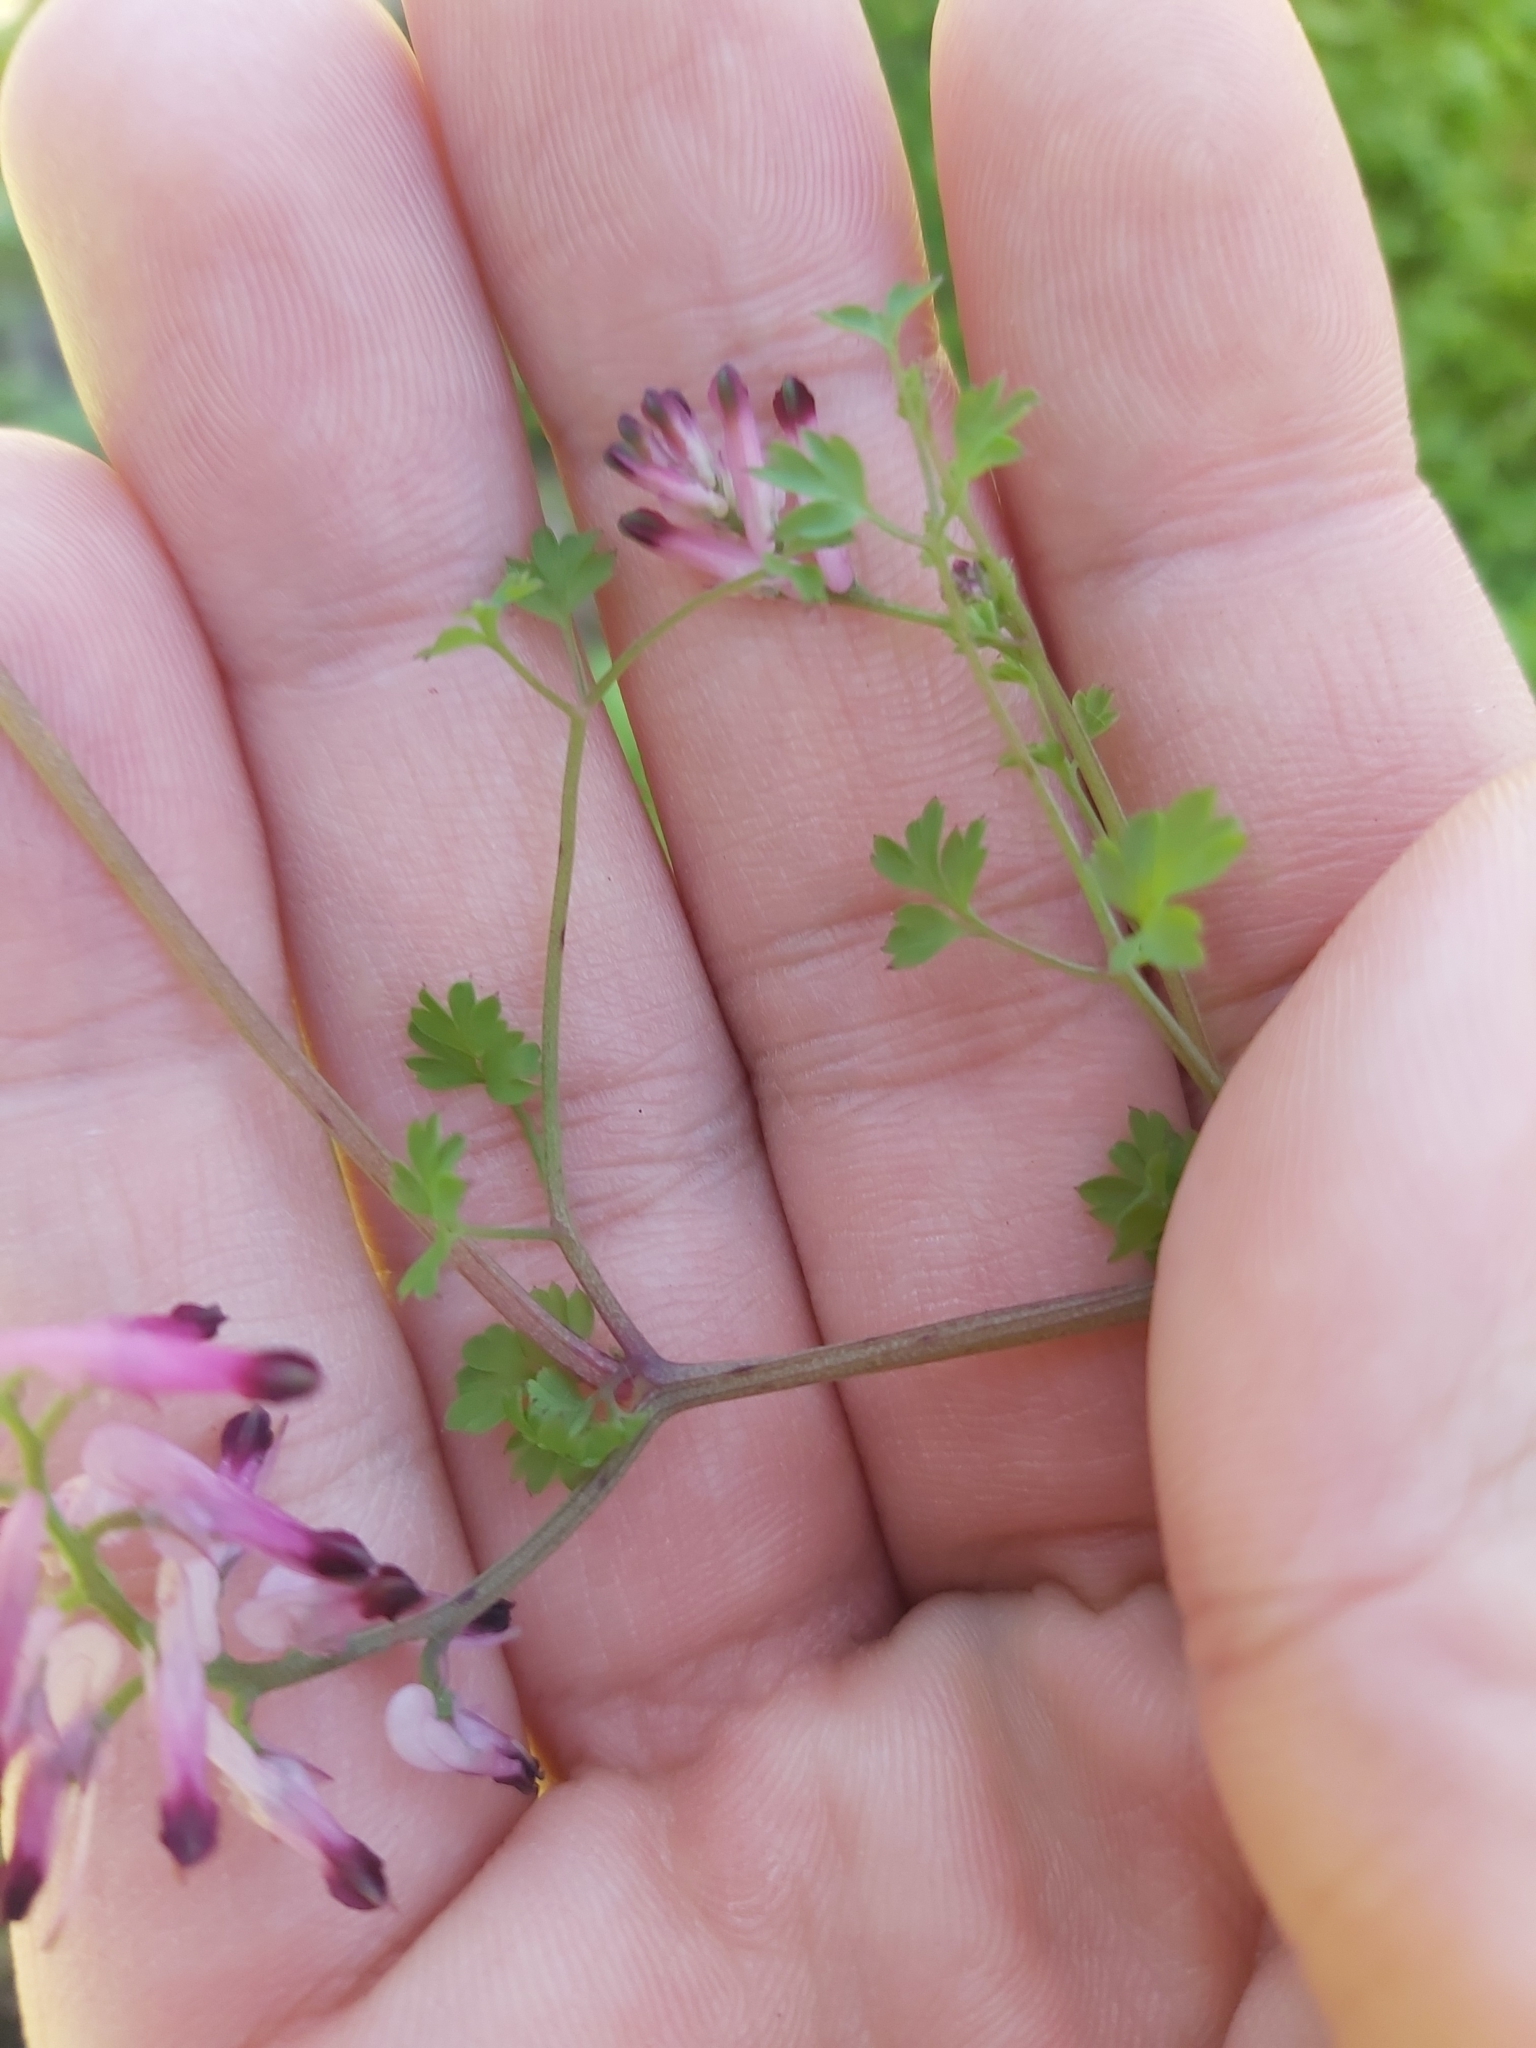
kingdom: Plantae
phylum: Tracheophyta
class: Magnoliopsida
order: Ranunculales
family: Papaveraceae
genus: Fumaria
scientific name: Fumaria muralis
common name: Common ramping-fumitory
